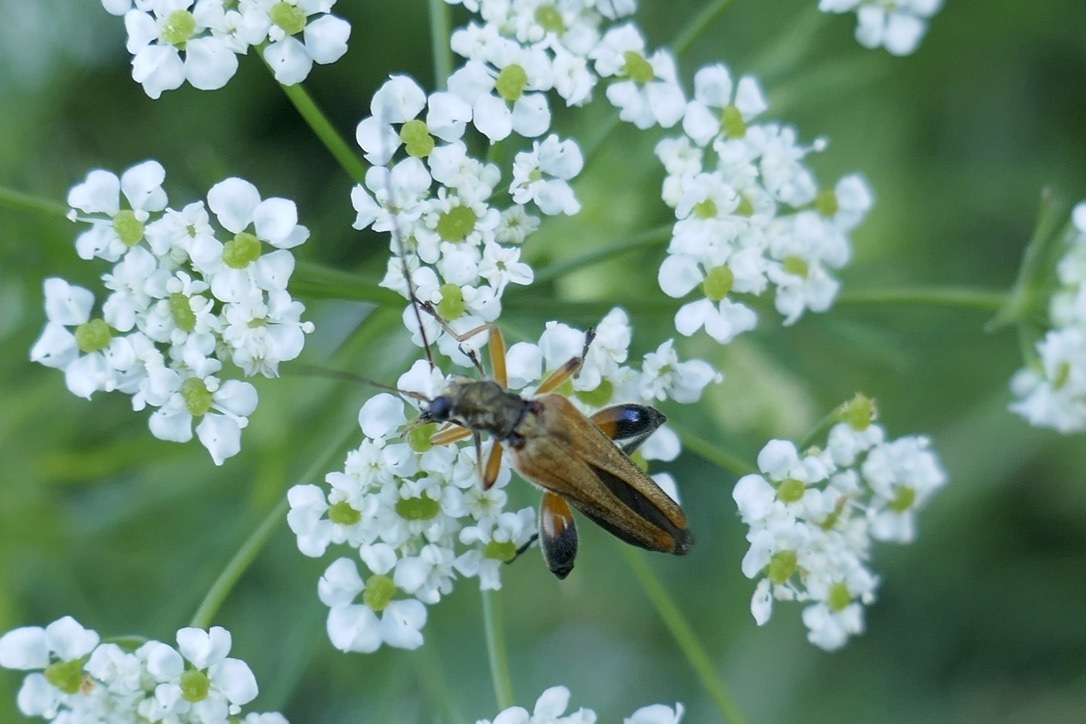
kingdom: Animalia
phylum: Arthropoda
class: Insecta
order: Coleoptera
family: Oedemeridae
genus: Oedemera
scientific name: Oedemera podagrariae
